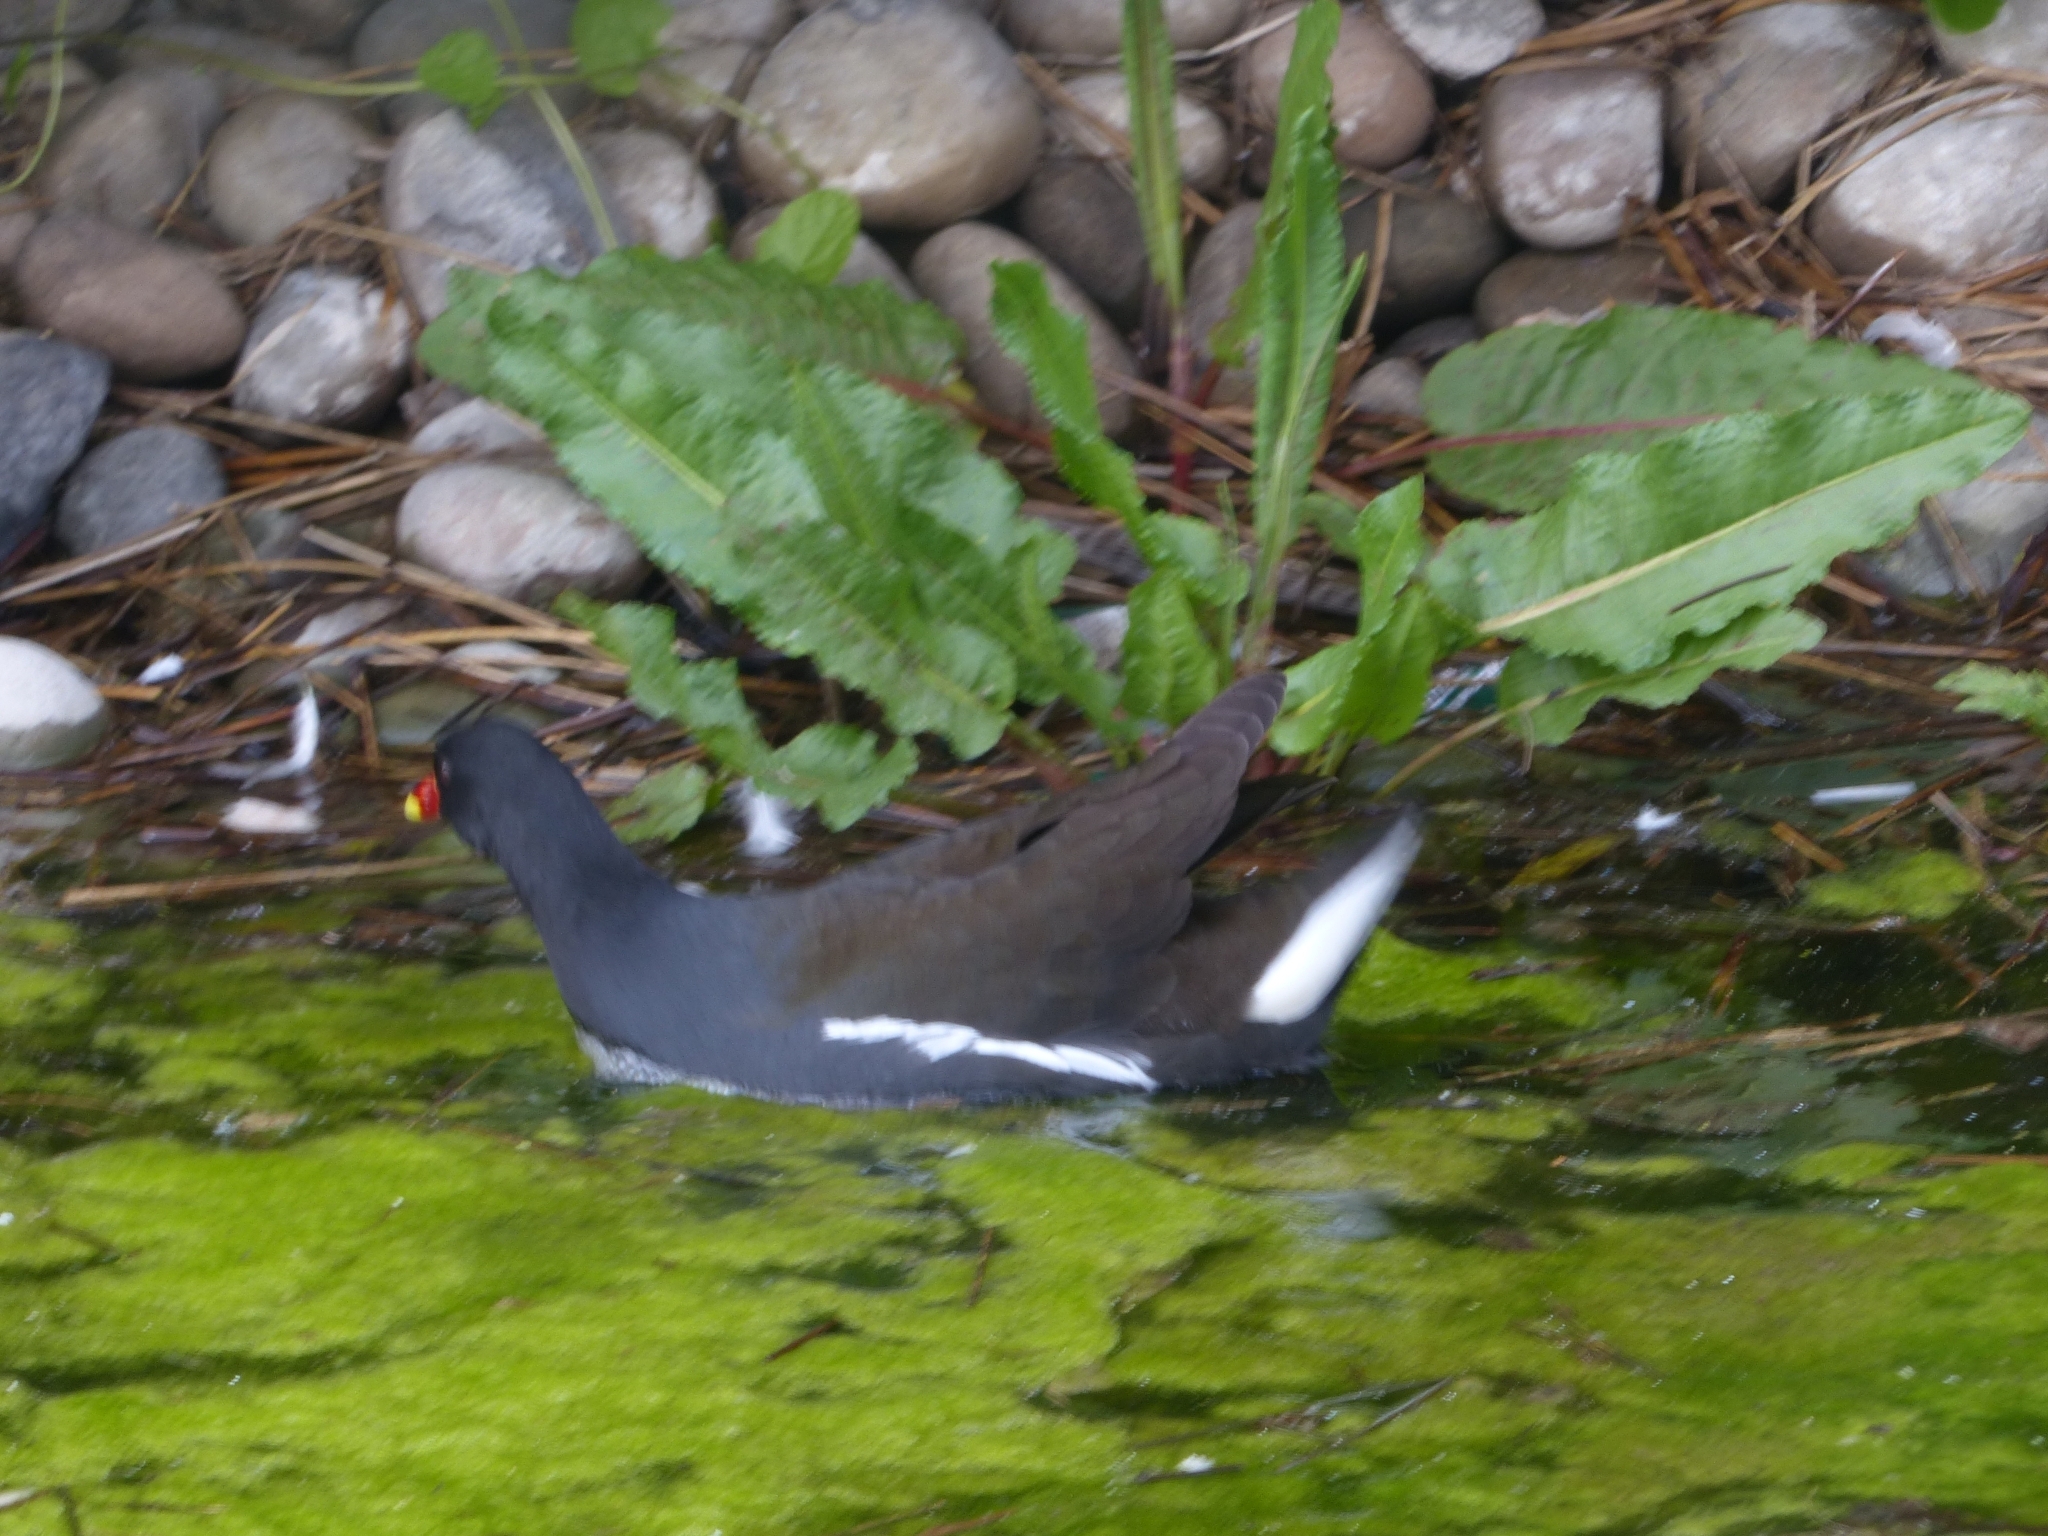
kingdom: Animalia
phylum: Chordata
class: Aves
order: Gruiformes
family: Rallidae
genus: Gallinula
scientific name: Gallinula chloropus
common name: Common moorhen
